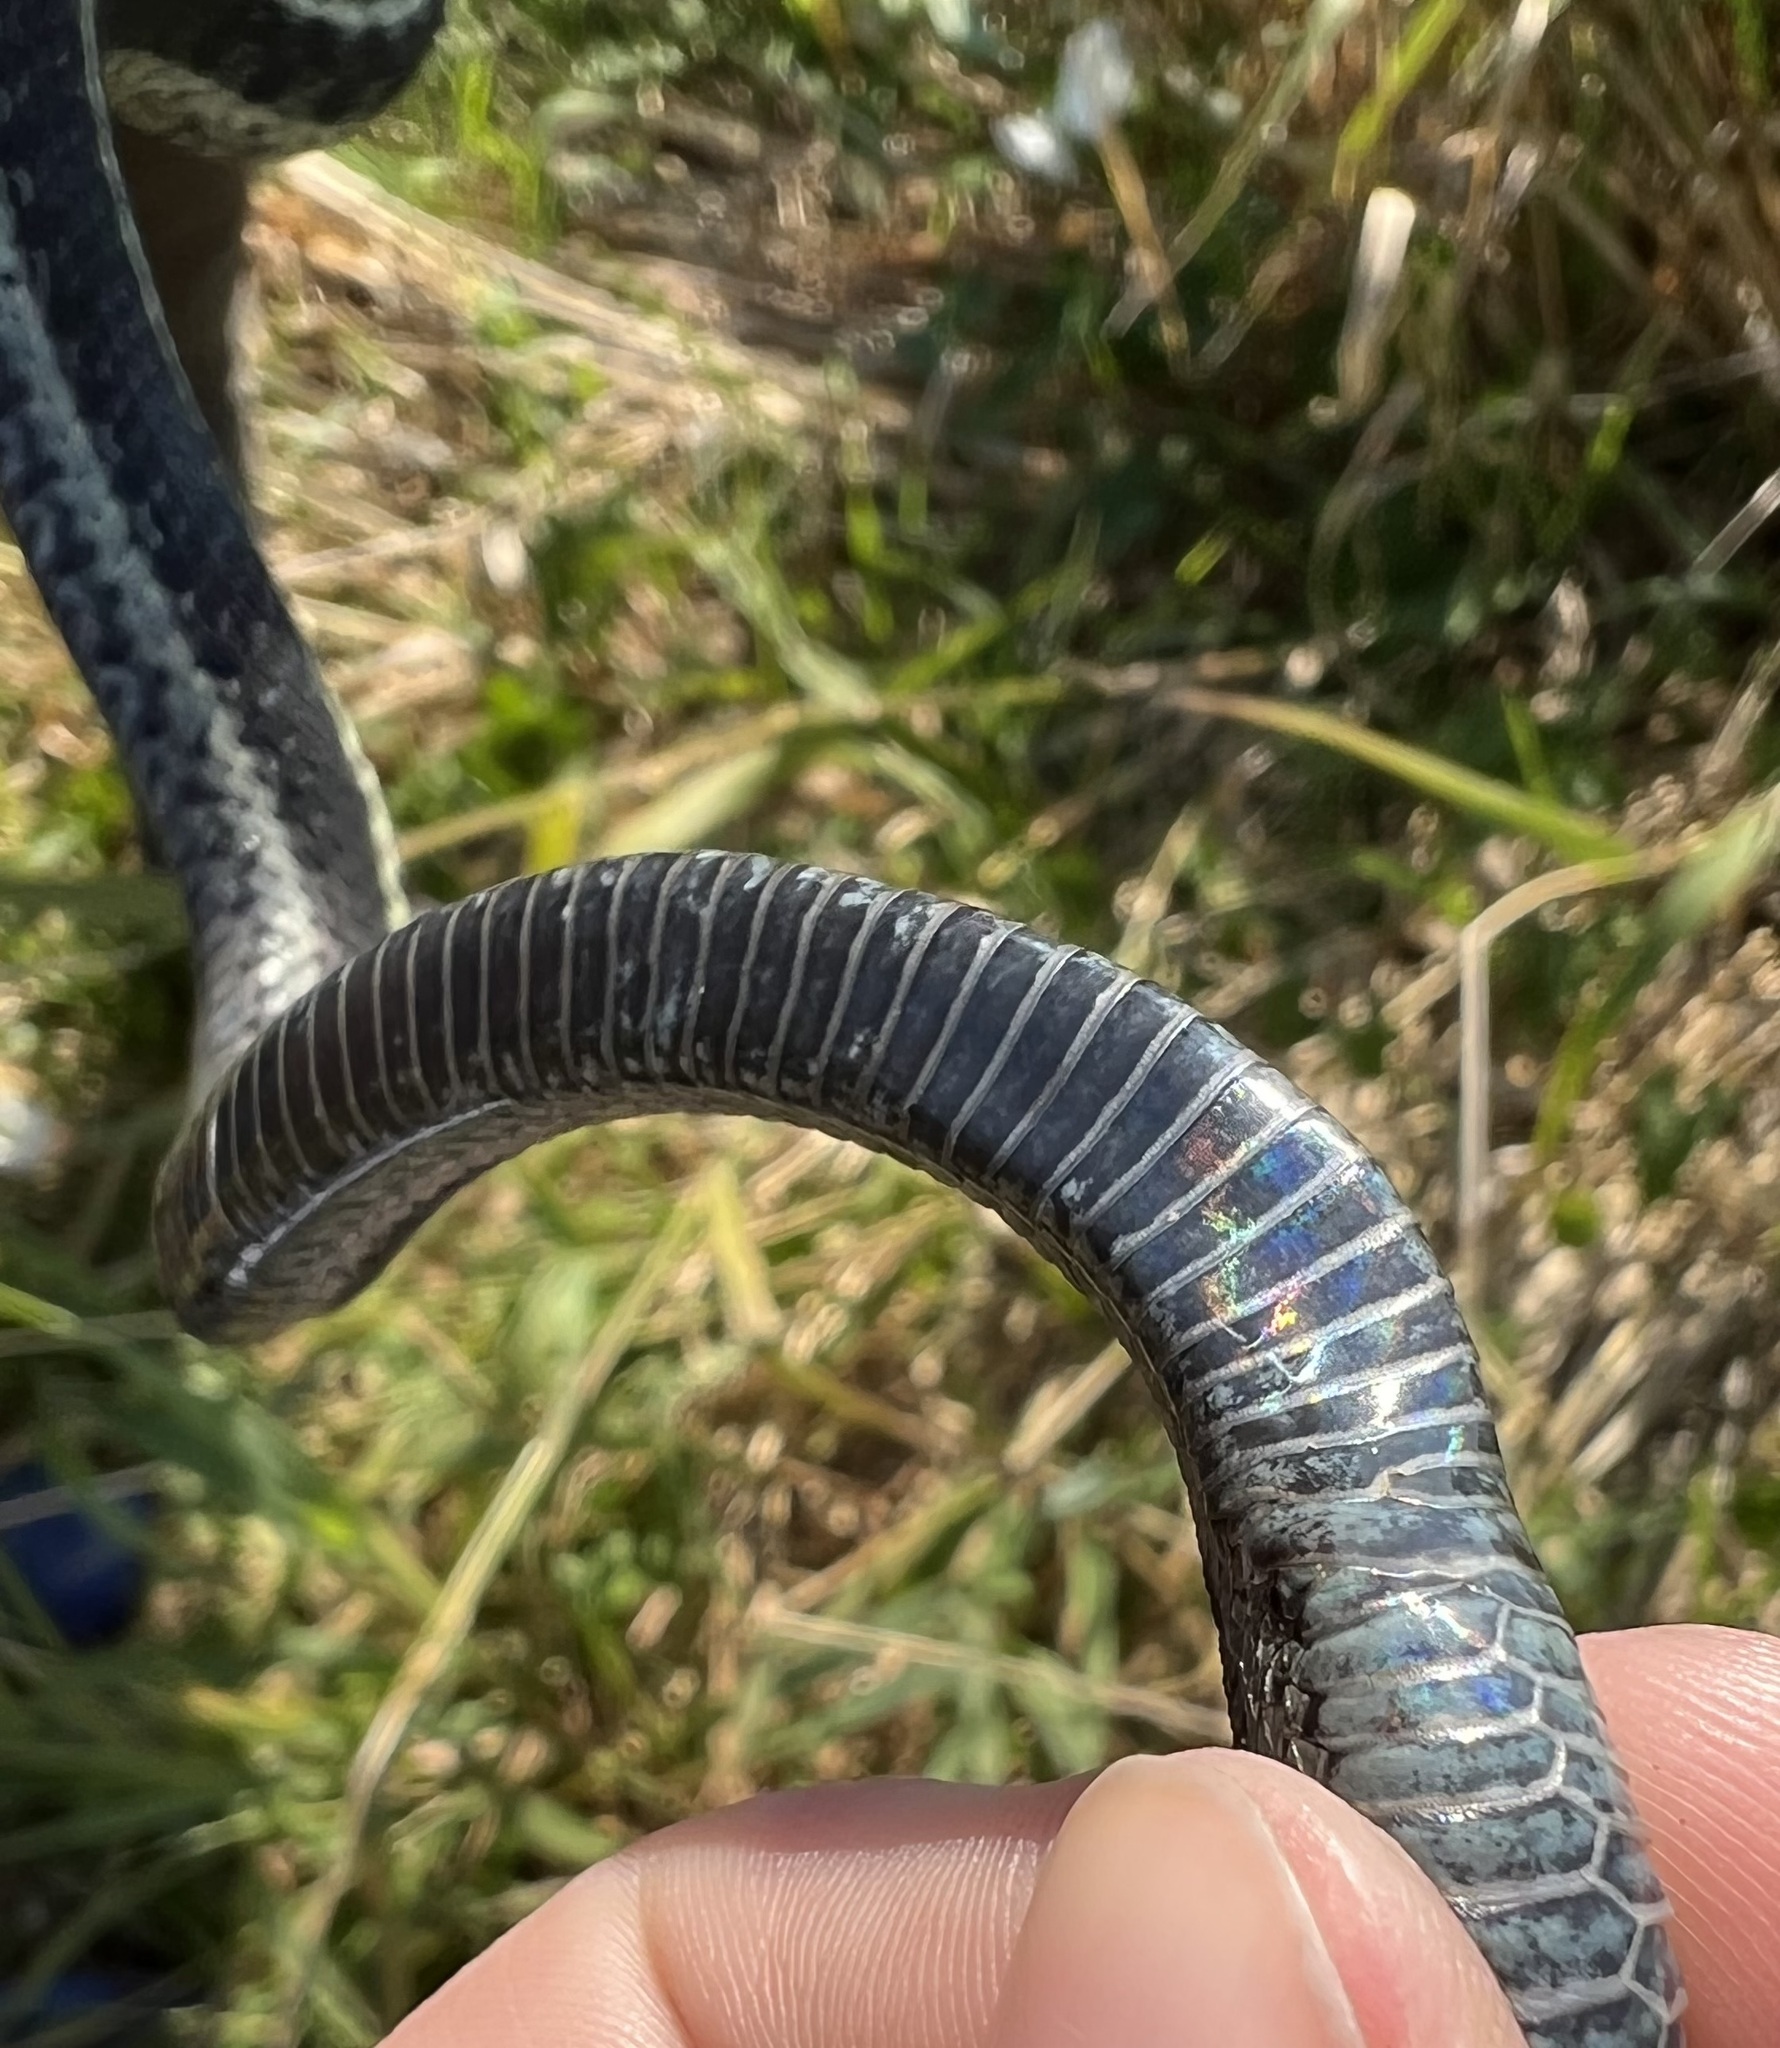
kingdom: Animalia
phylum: Chordata
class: Squamata
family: Colubridae
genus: Thamnophis
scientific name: Thamnophis elegans
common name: Western terrestrial garter snake
